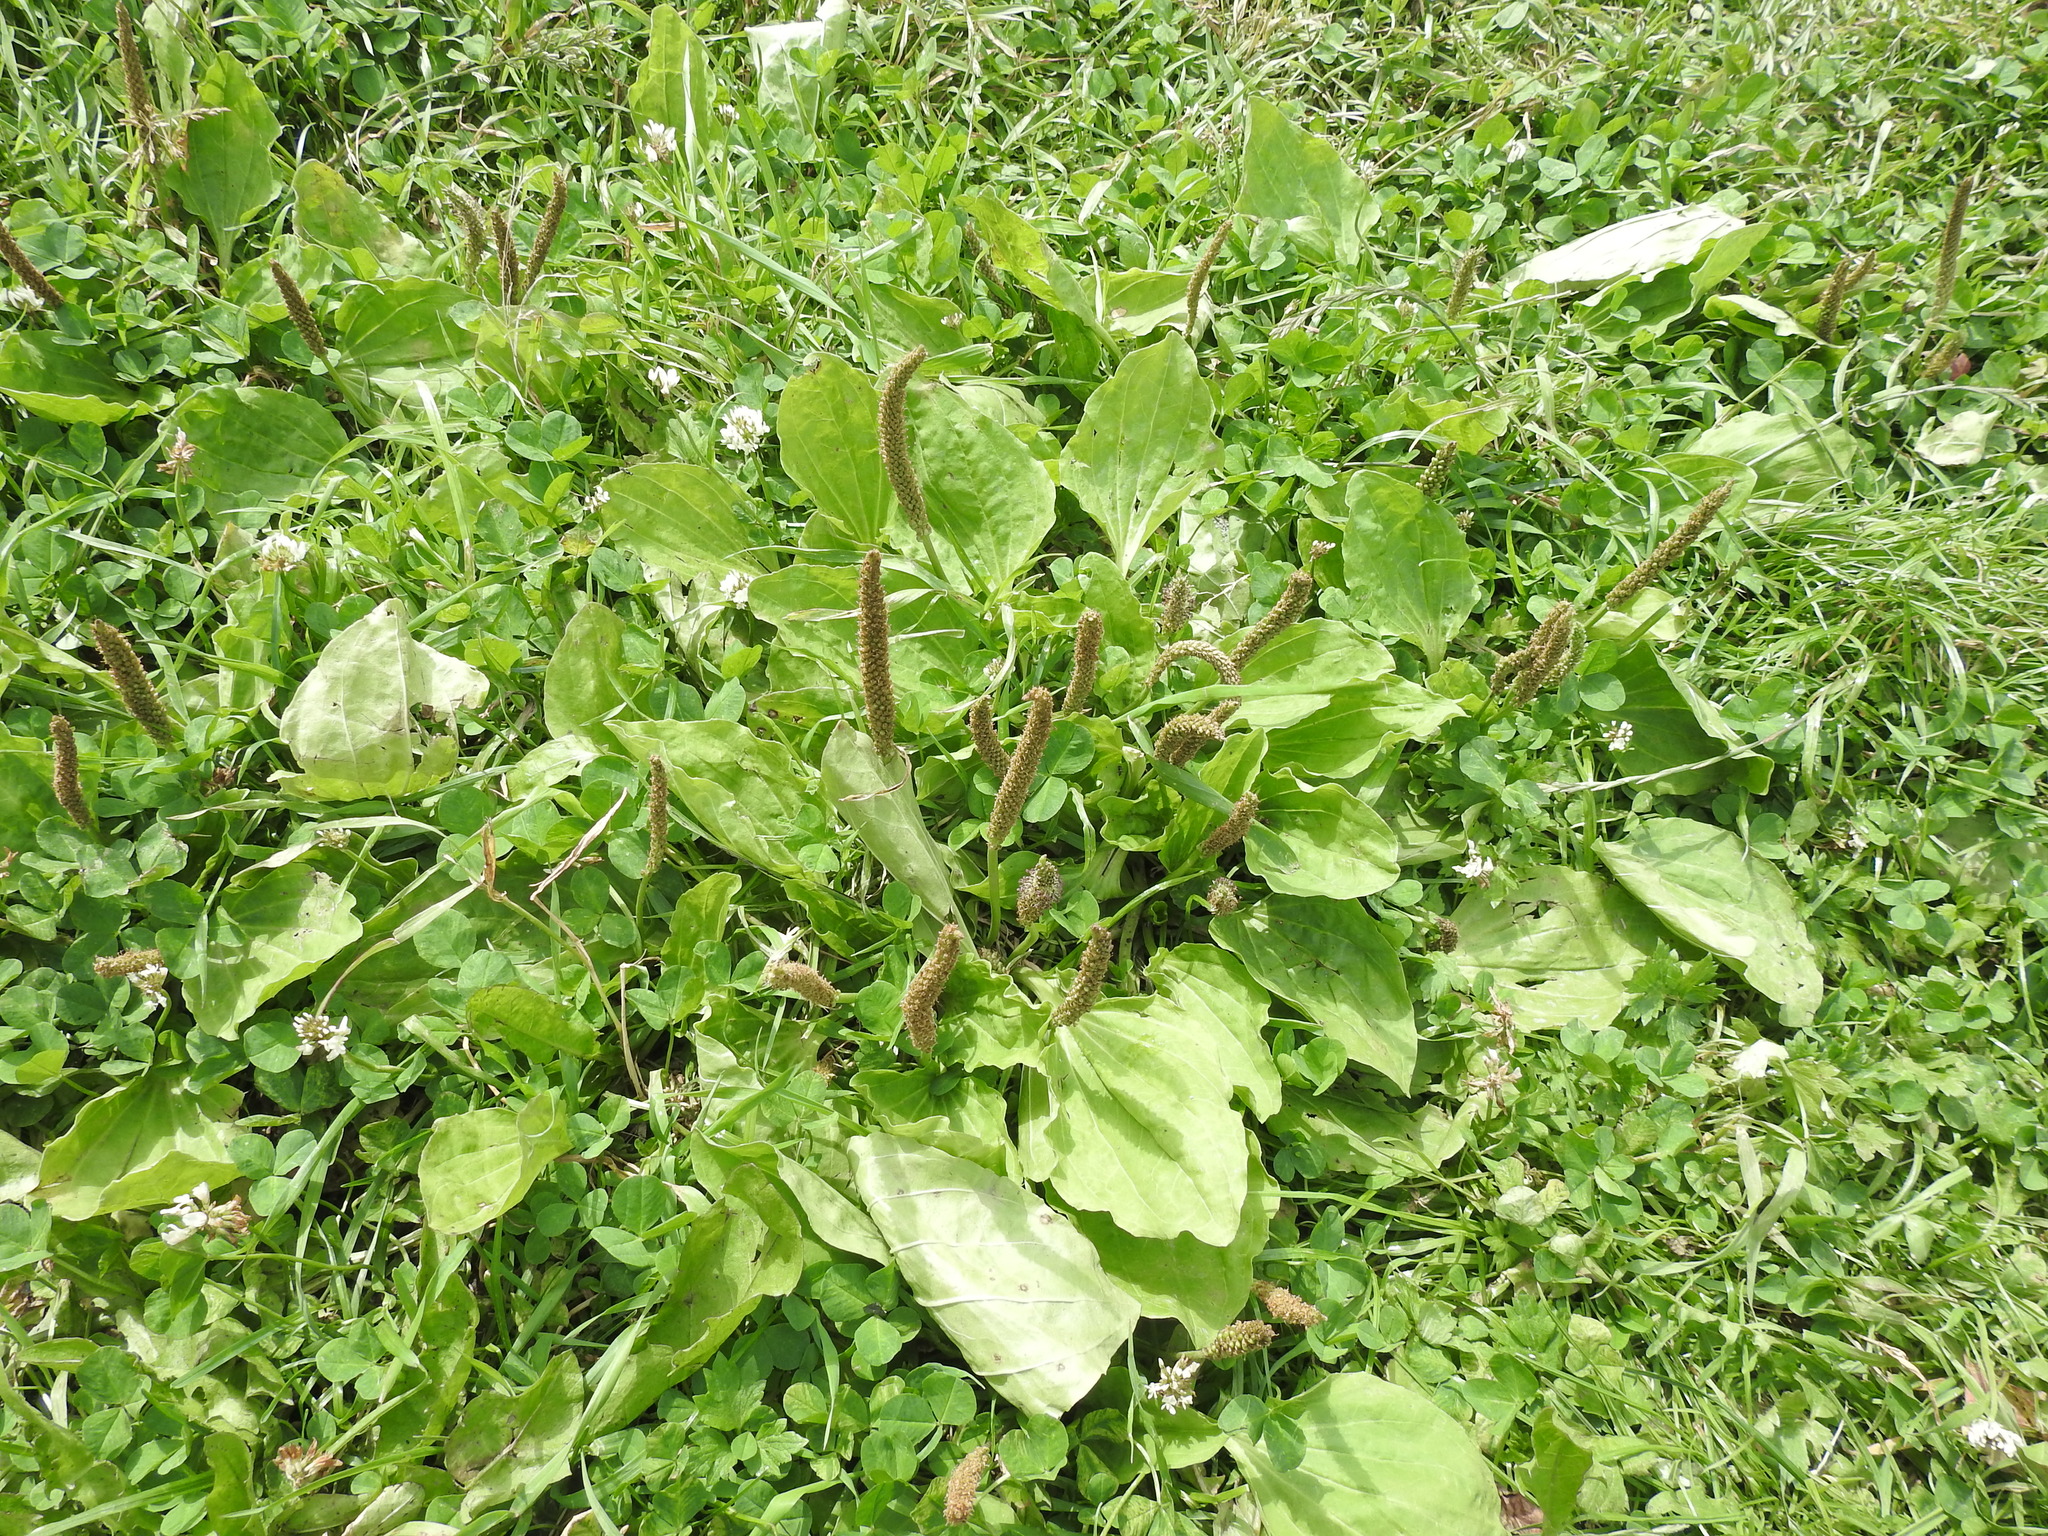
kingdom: Plantae
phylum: Tracheophyta
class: Magnoliopsida
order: Lamiales
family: Plantaginaceae
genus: Plantago
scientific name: Plantago major
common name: Common plantain
